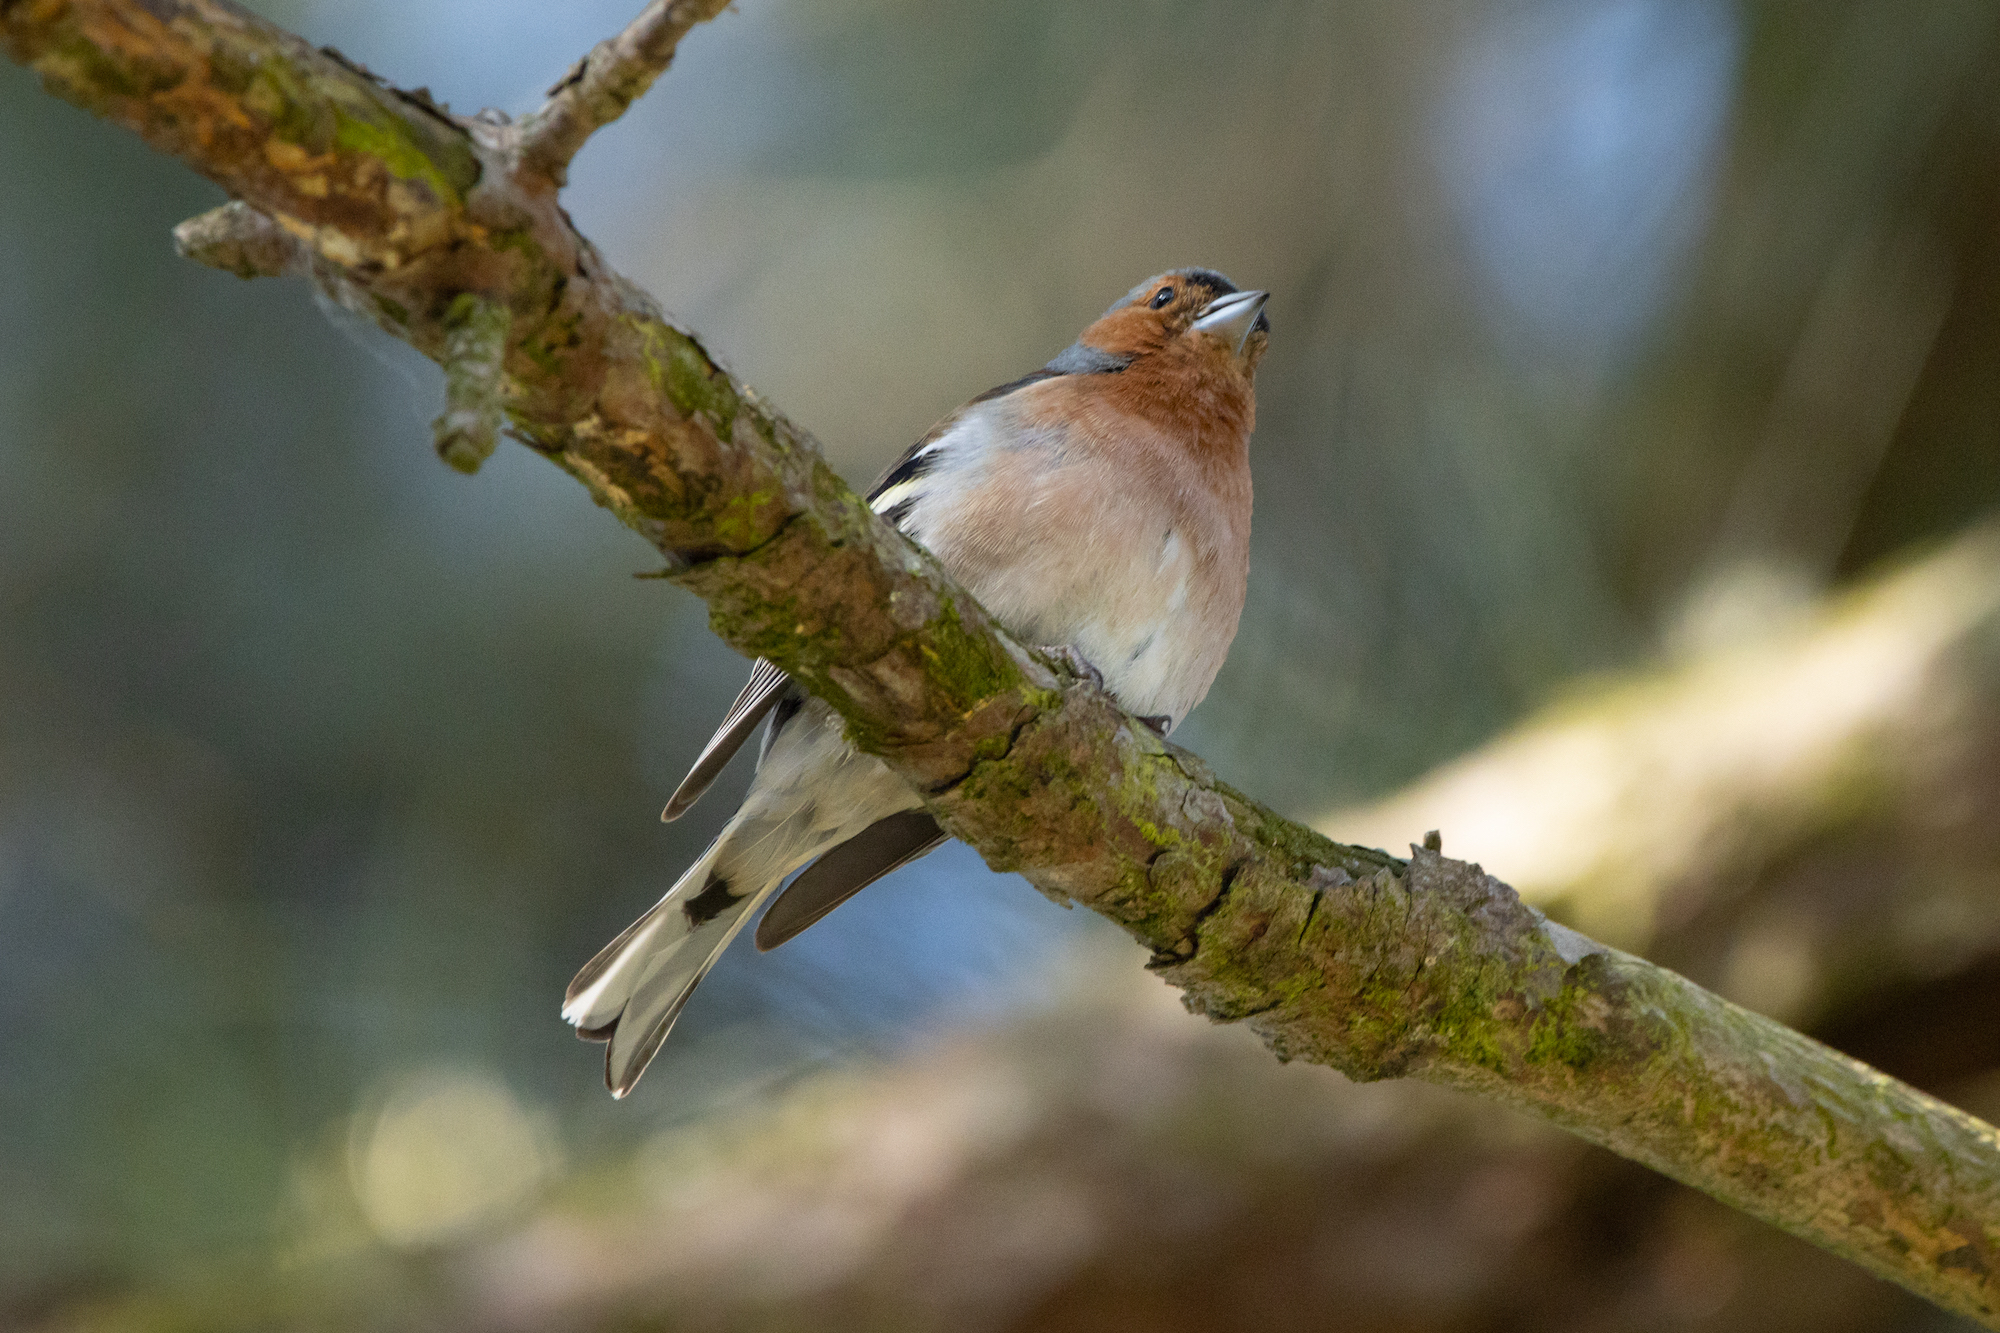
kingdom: Animalia
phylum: Chordata
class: Aves
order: Passeriformes
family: Fringillidae
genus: Fringilla
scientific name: Fringilla coelebs
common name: Common chaffinch
